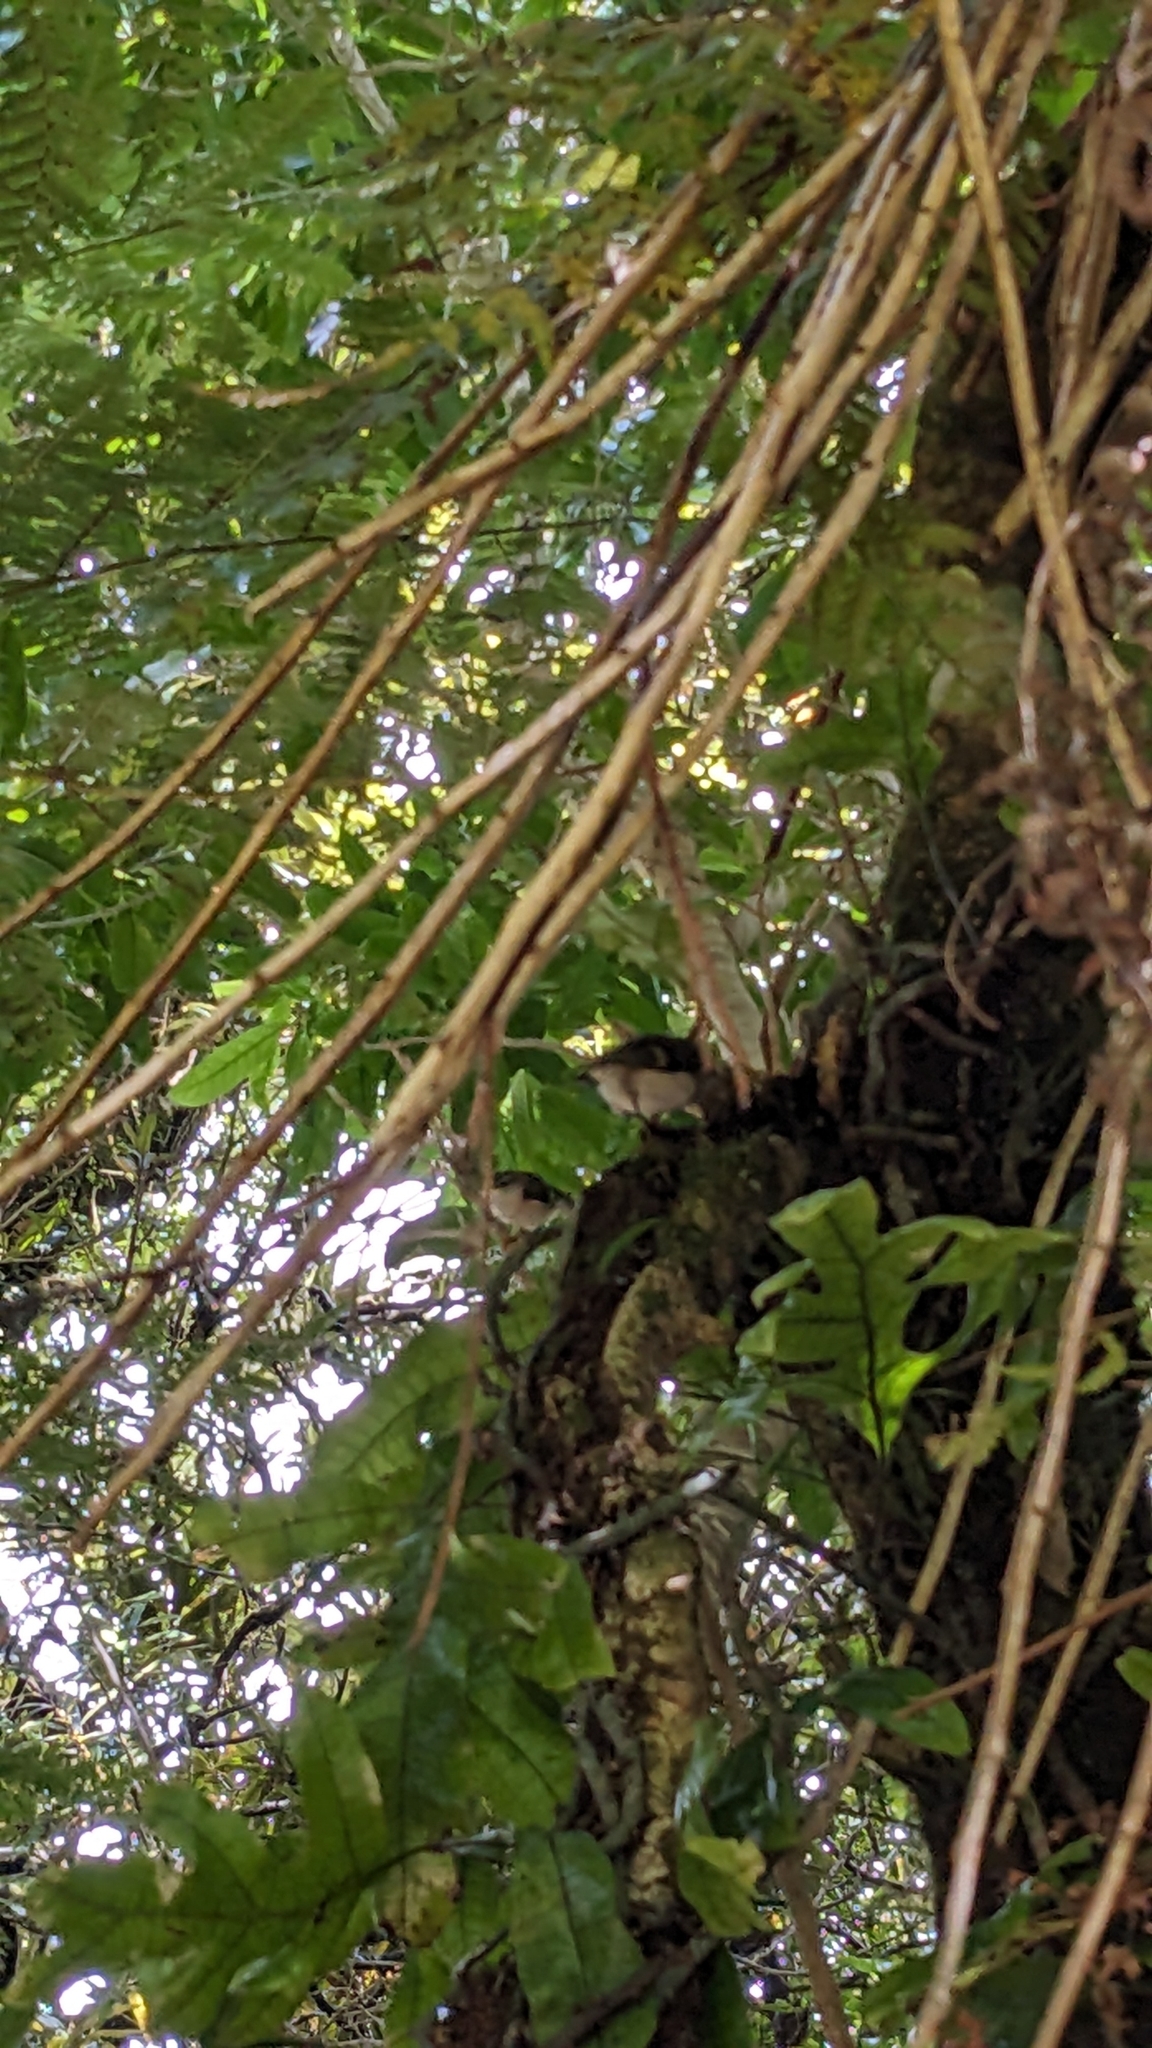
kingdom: Animalia
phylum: Chordata
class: Aves
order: Passeriformes
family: Acanthisittidae
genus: Acanthisitta
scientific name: Acanthisitta chloris
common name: Rifleman
